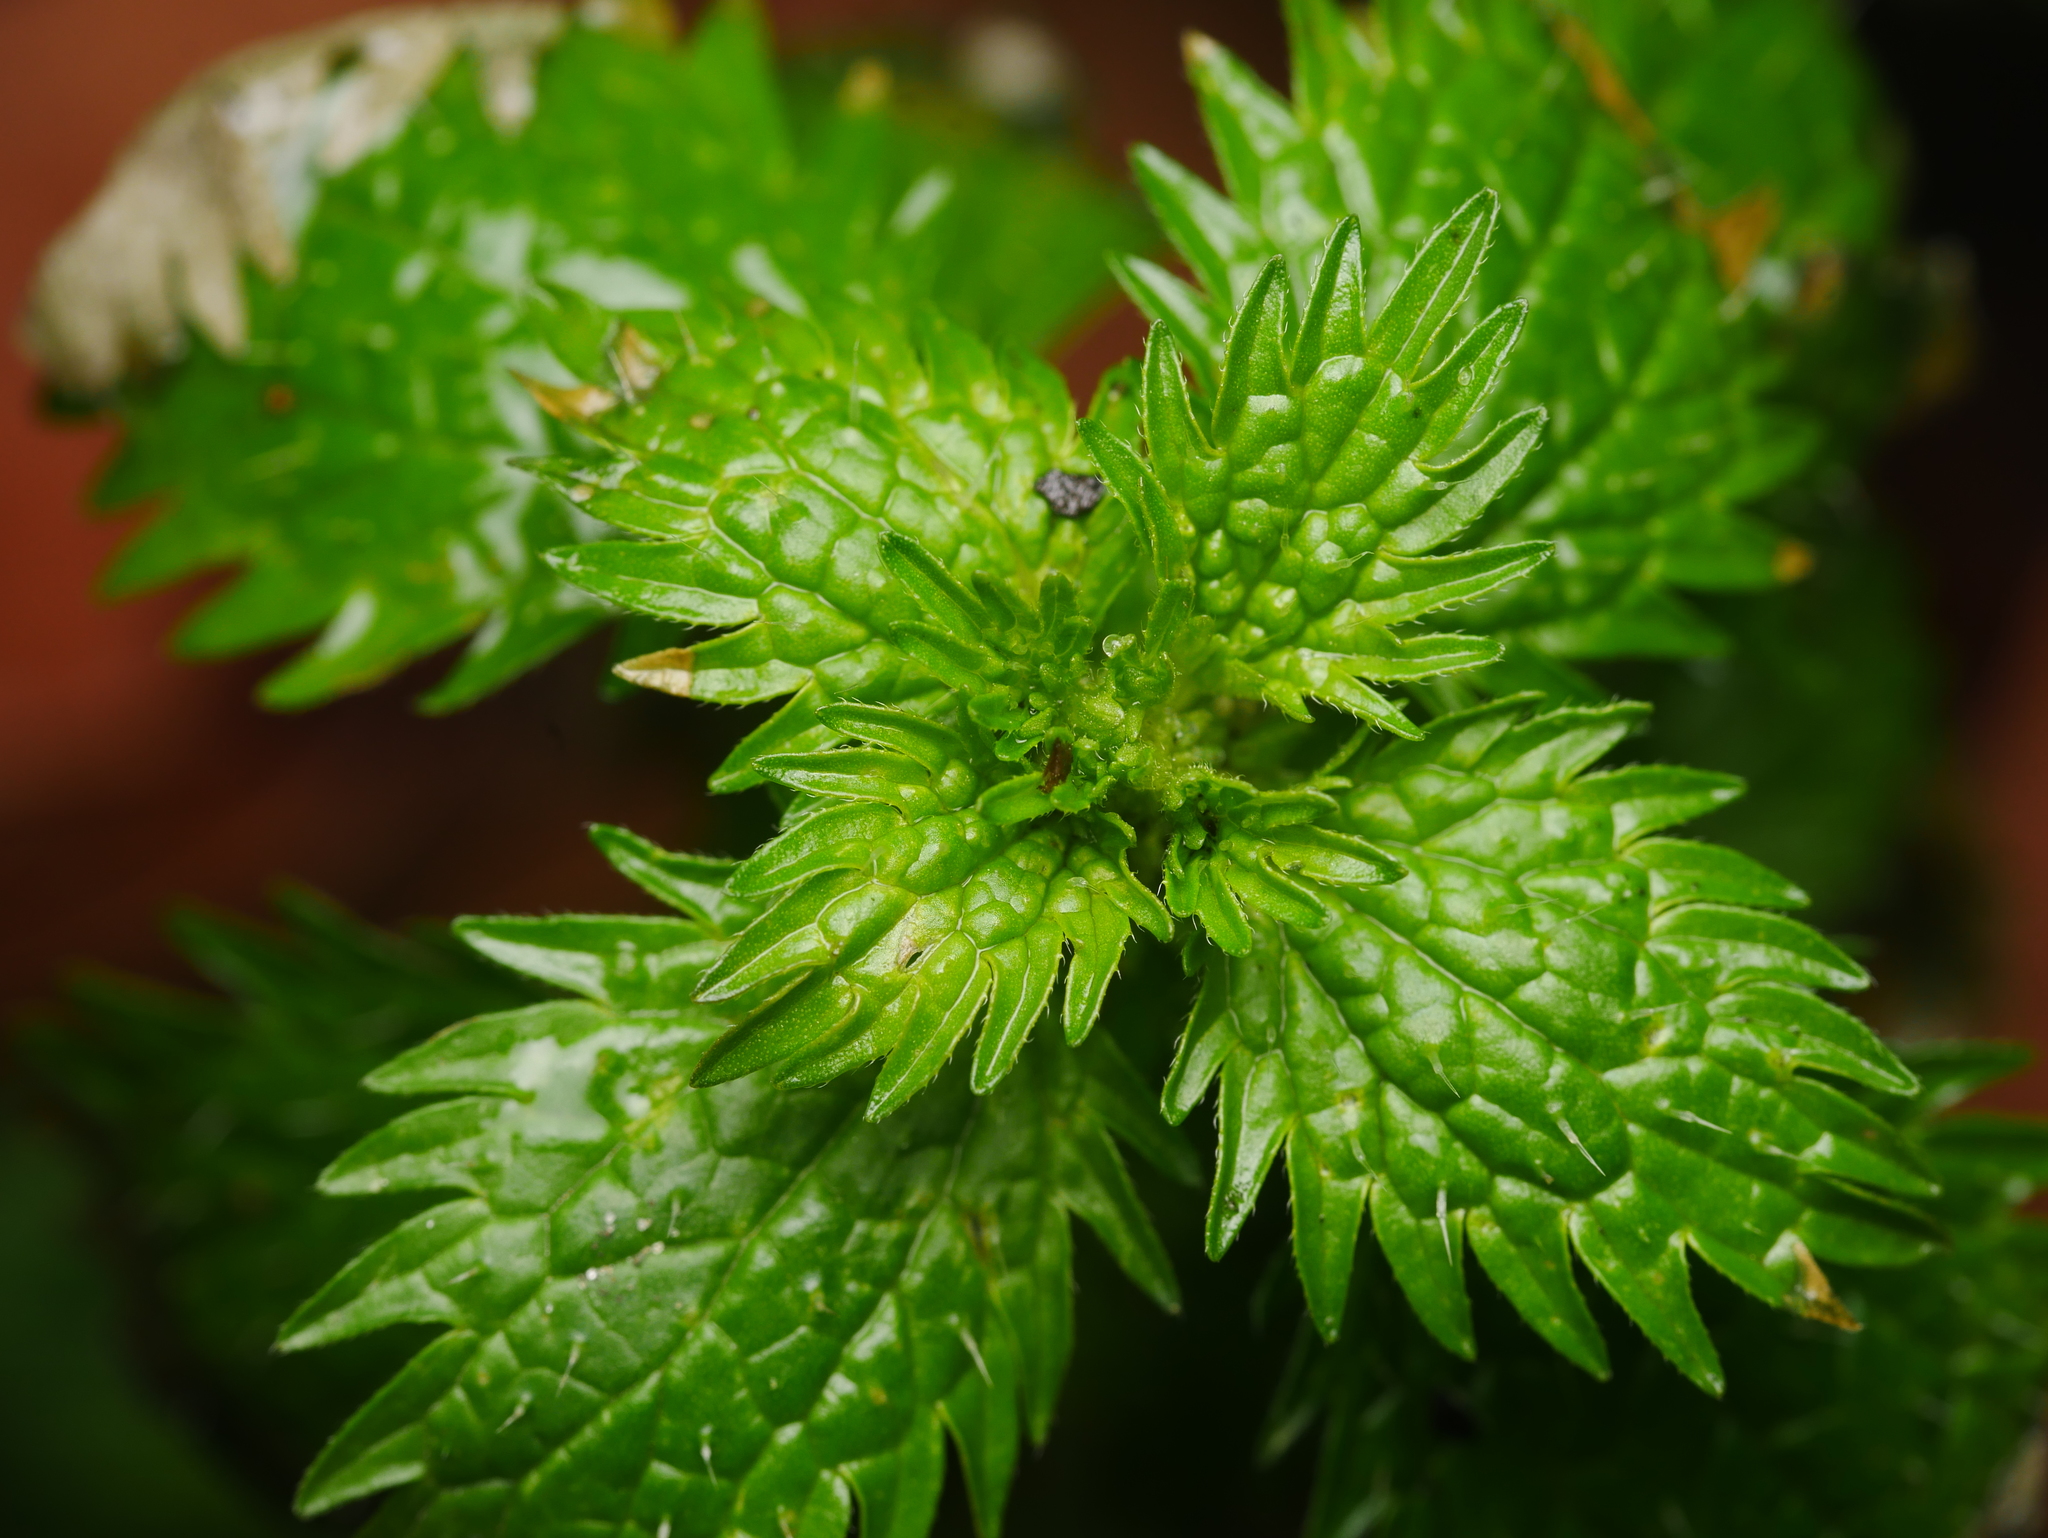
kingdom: Plantae
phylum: Tracheophyta
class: Magnoliopsida
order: Rosales
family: Urticaceae
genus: Urtica
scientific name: Urtica urens
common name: Dwarf nettle
